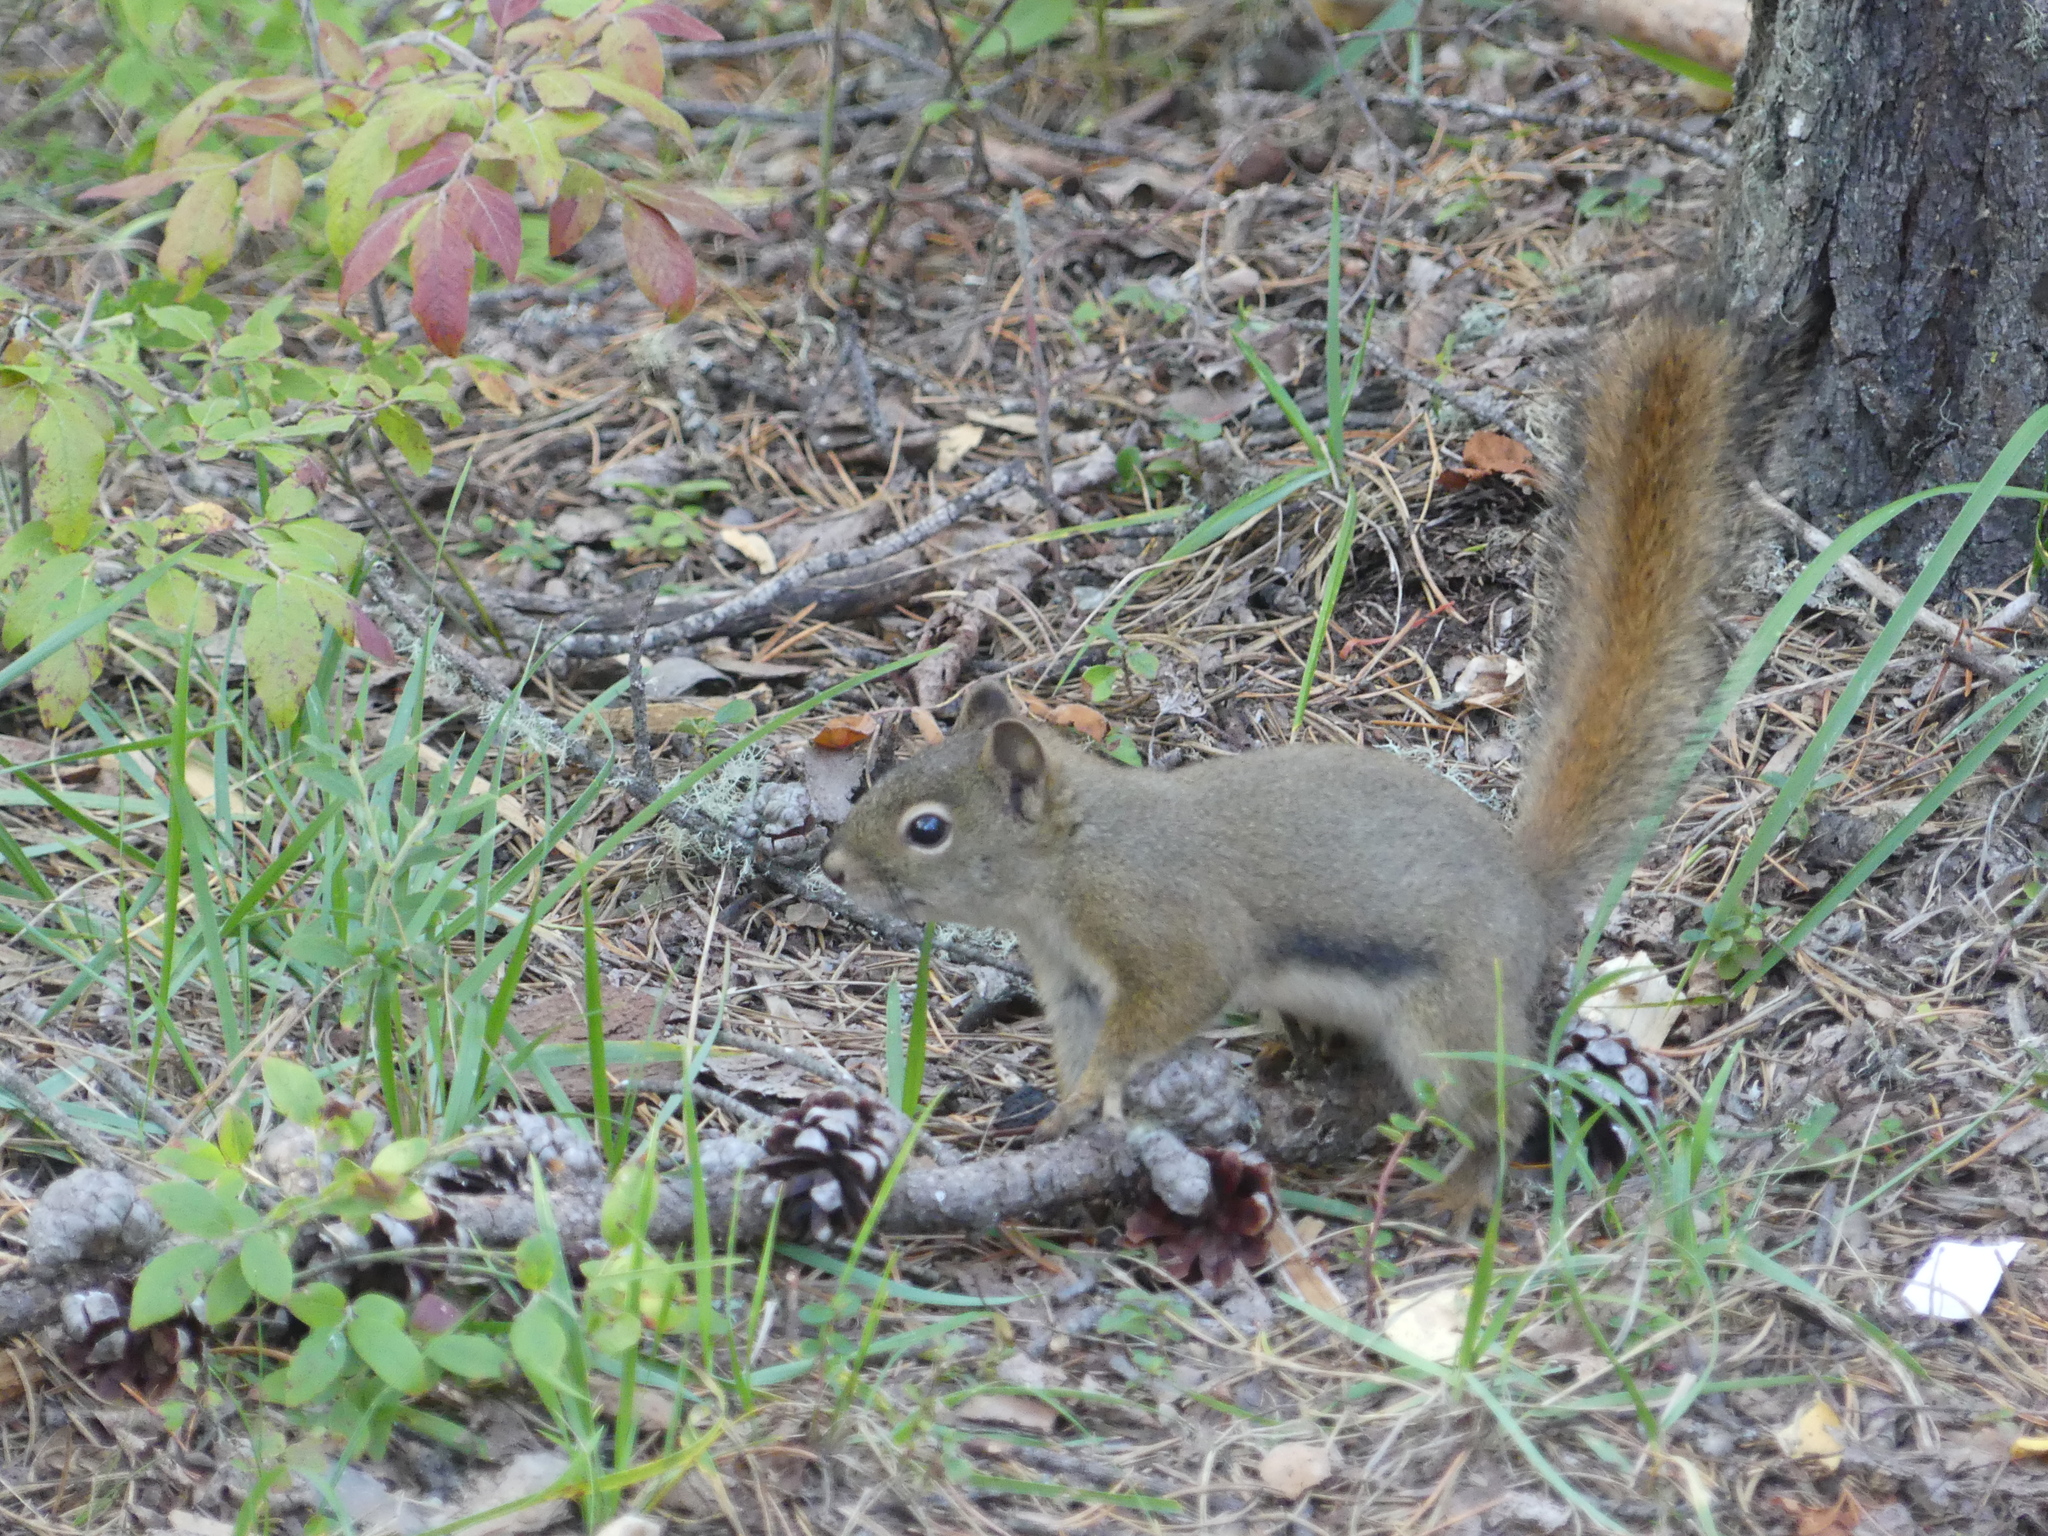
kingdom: Animalia
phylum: Chordata
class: Mammalia
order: Rodentia
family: Sciuridae
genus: Tamiasciurus
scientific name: Tamiasciurus hudsonicus
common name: Red squirrel
